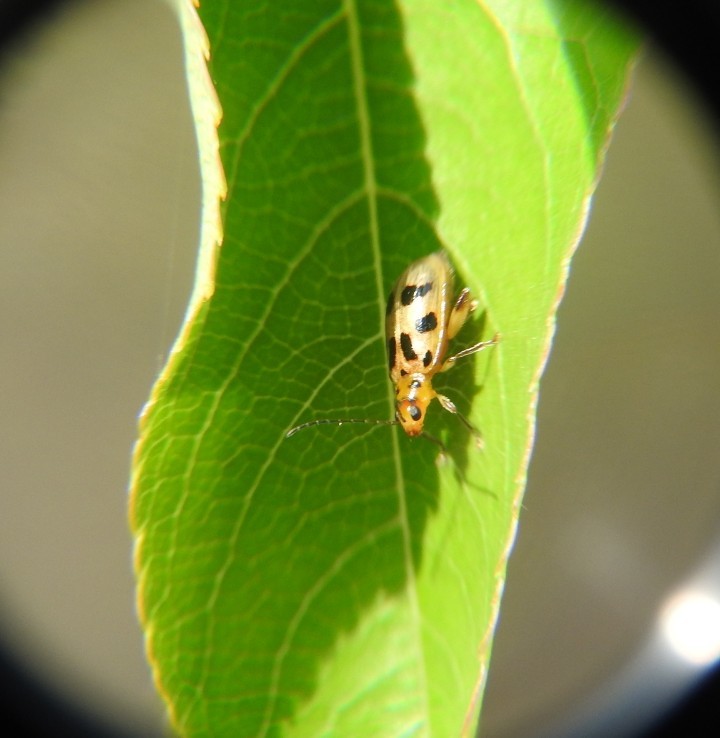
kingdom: Animalia
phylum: Arthropoda
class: Insecta
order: Coleoptera
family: Chrysomelidae
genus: Systena
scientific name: Systena
